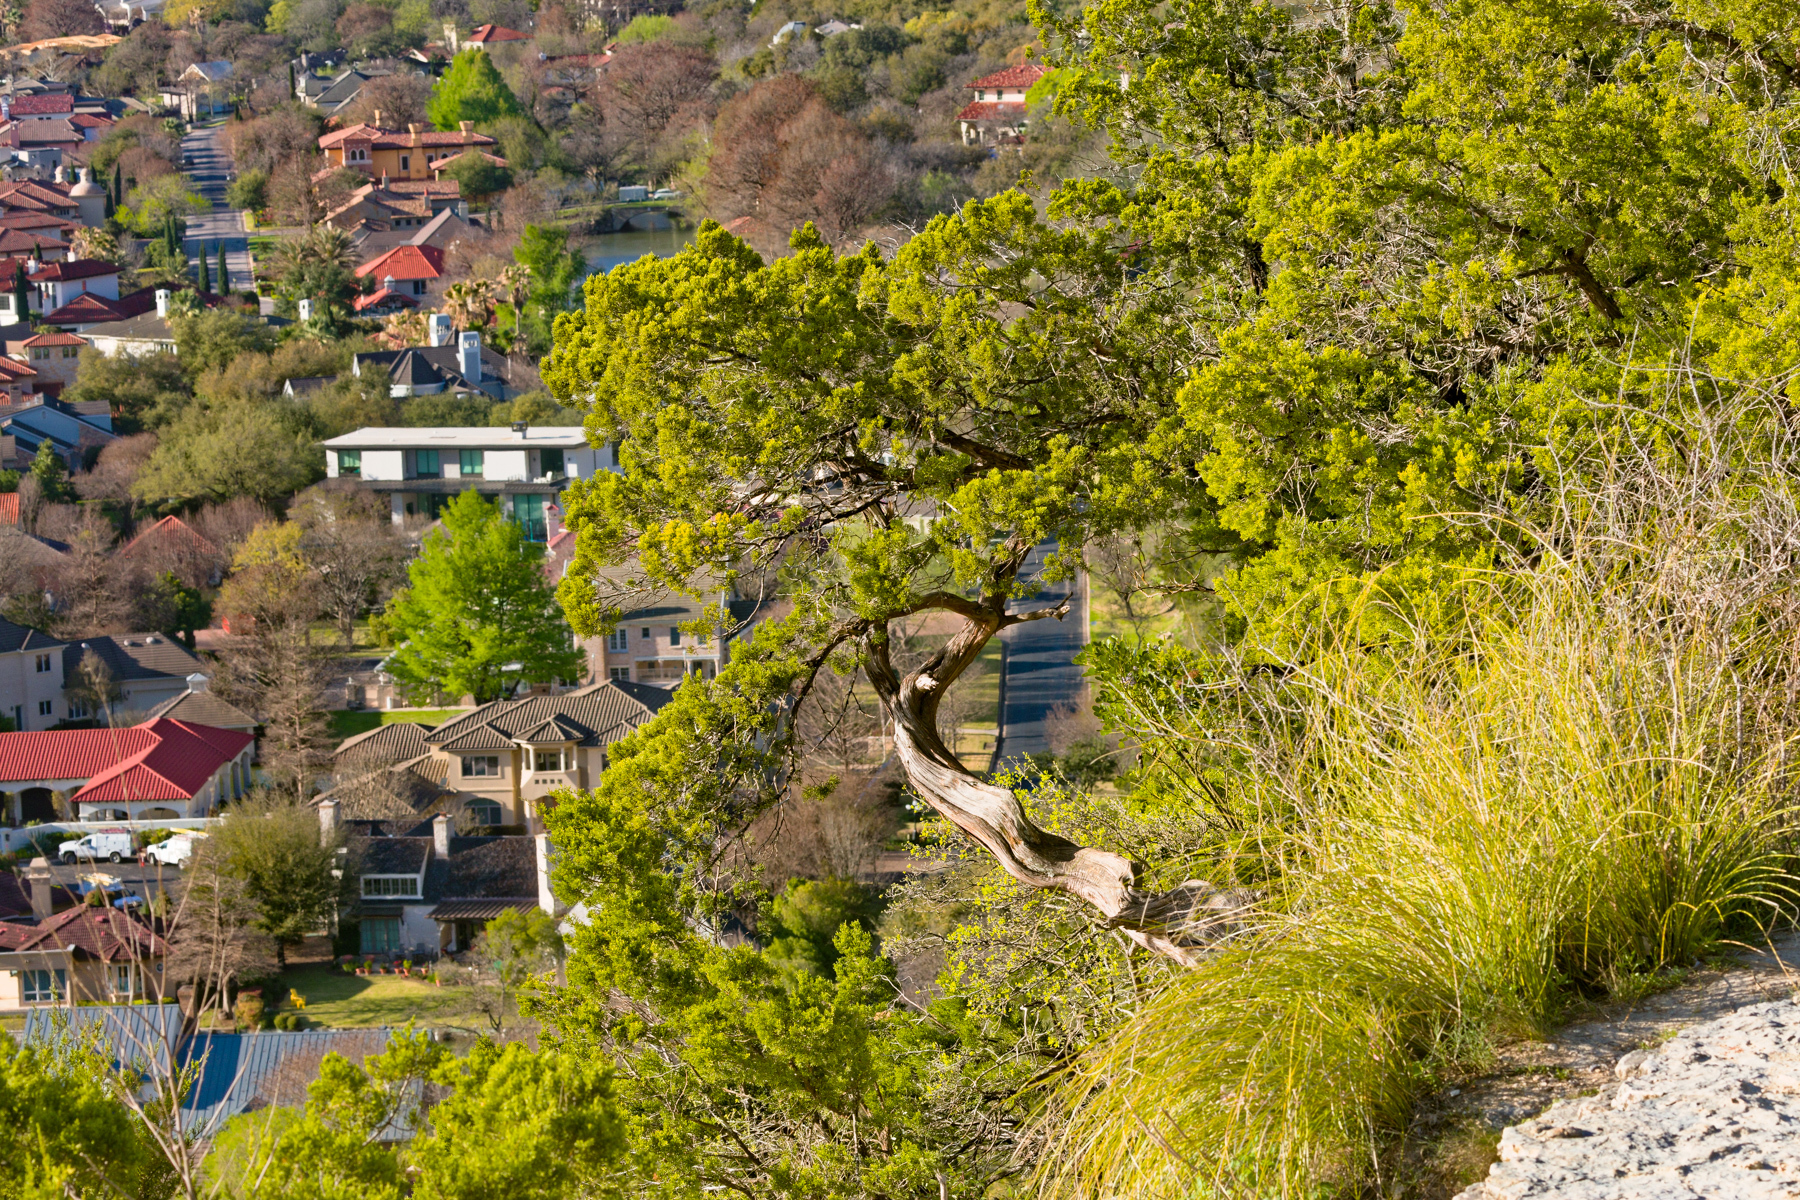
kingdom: Plantae
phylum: Tracheophyta
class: Pinopsida
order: Pinales
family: Cupressaceae
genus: Juniperus
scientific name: Juniperus ashei
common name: Mexican juniper
